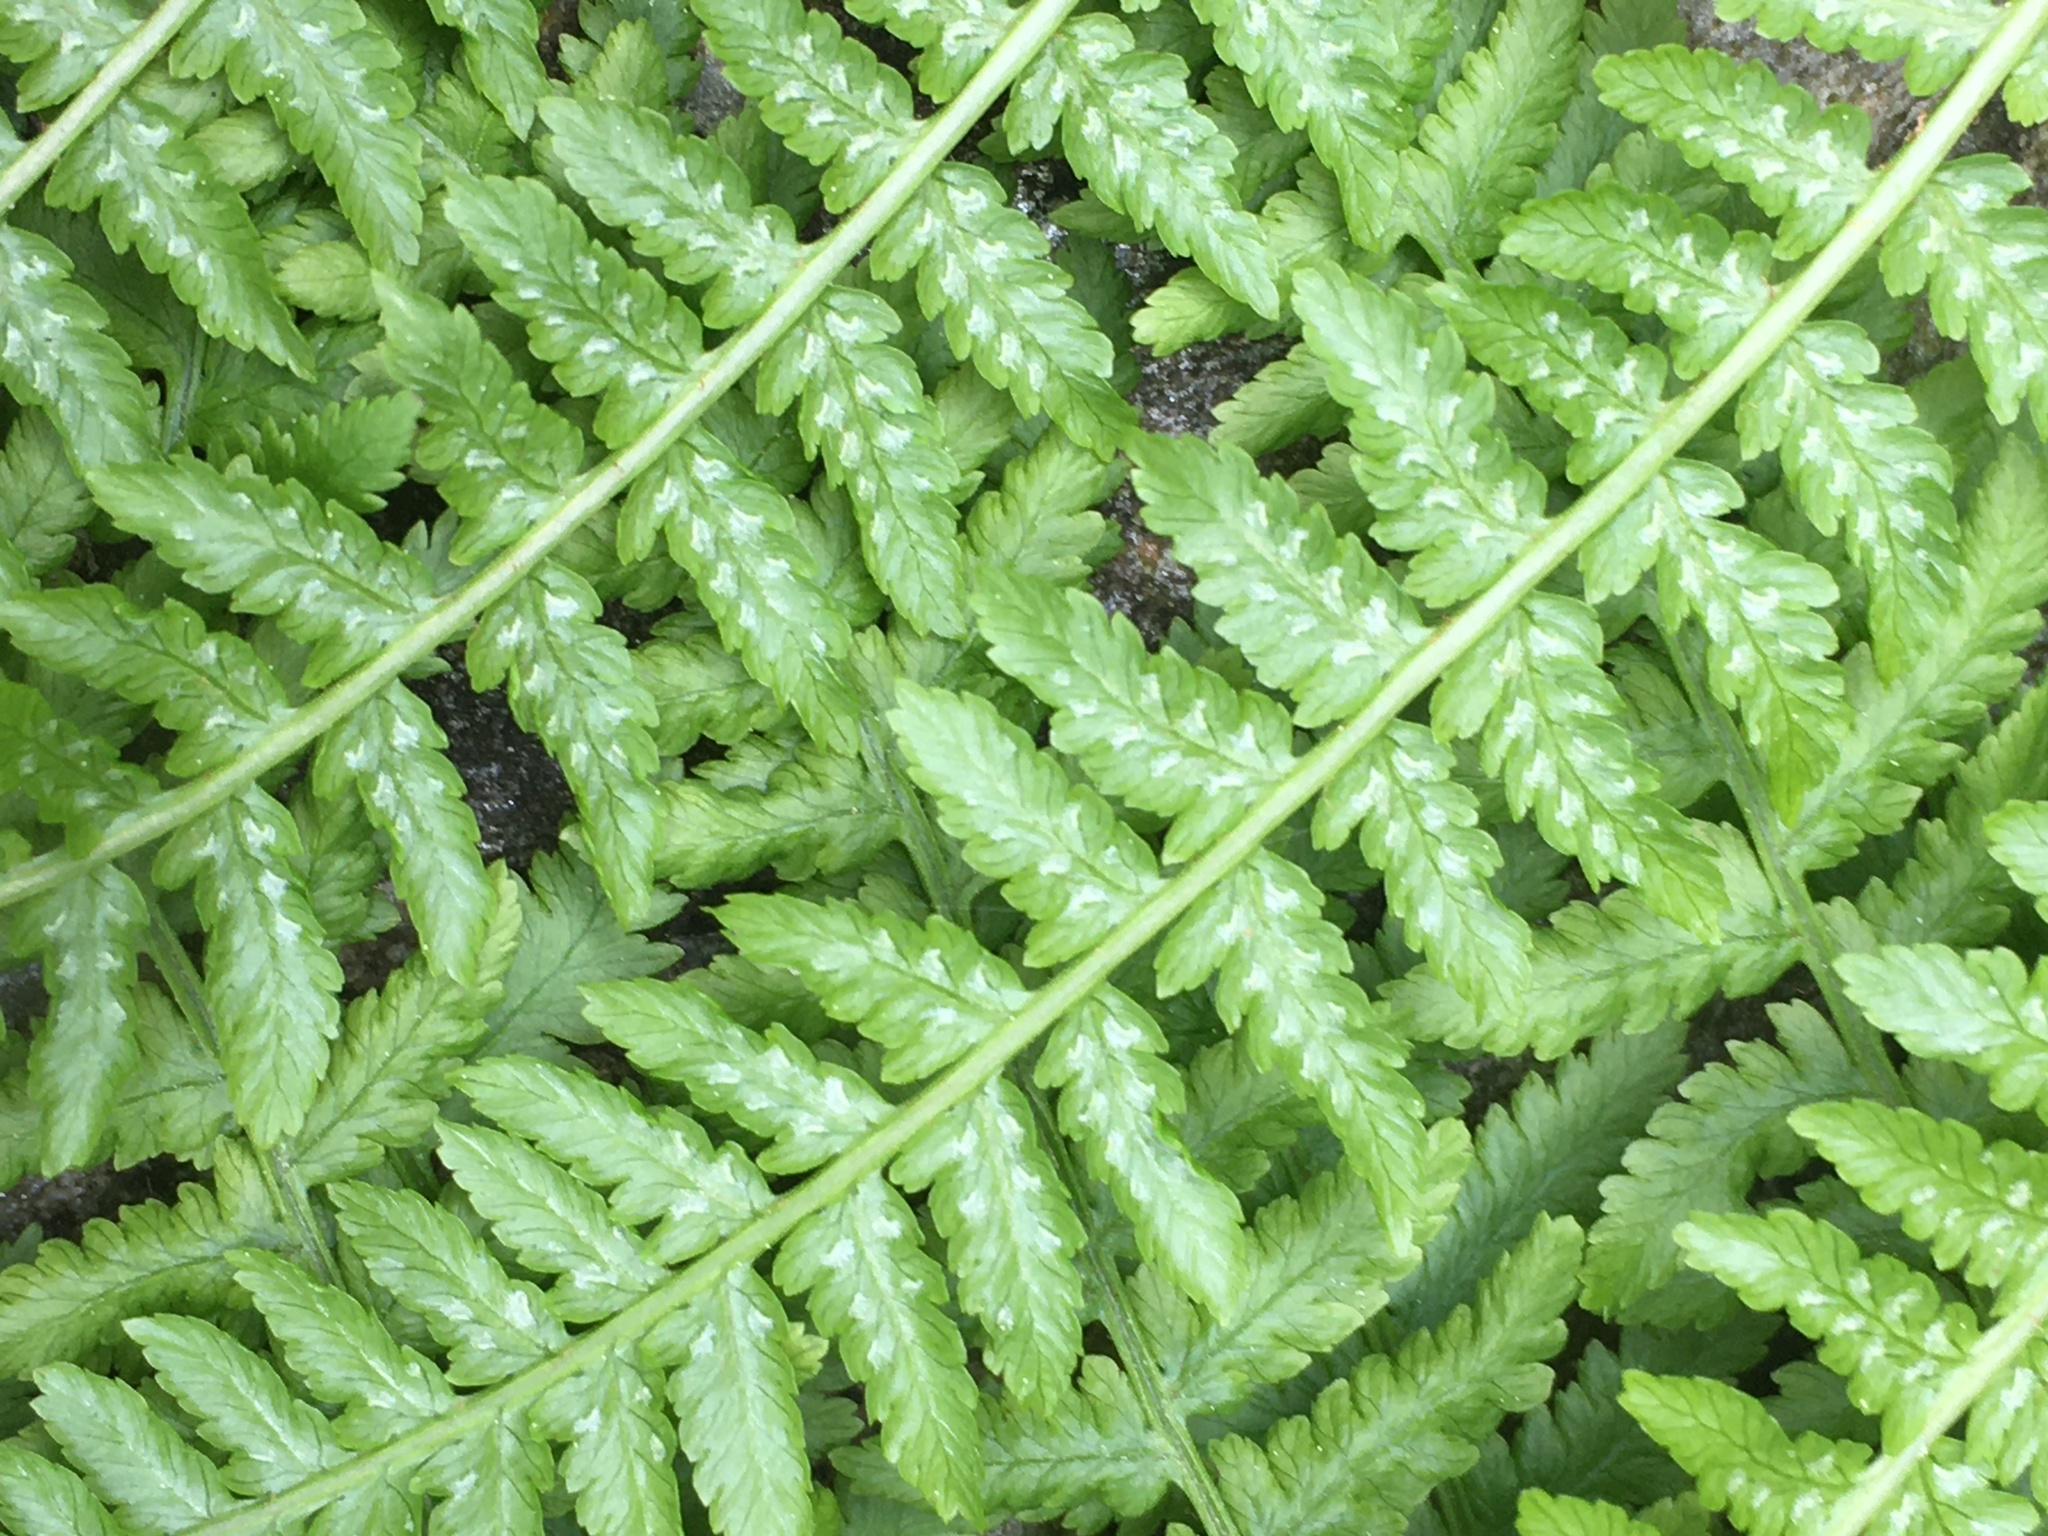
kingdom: Plantae
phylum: Tracheophyta
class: Polypodiopsida
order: Polypodiales
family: Athyriaceae
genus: Athyrium
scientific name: Athyrium filix-femina
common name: Lady fern
